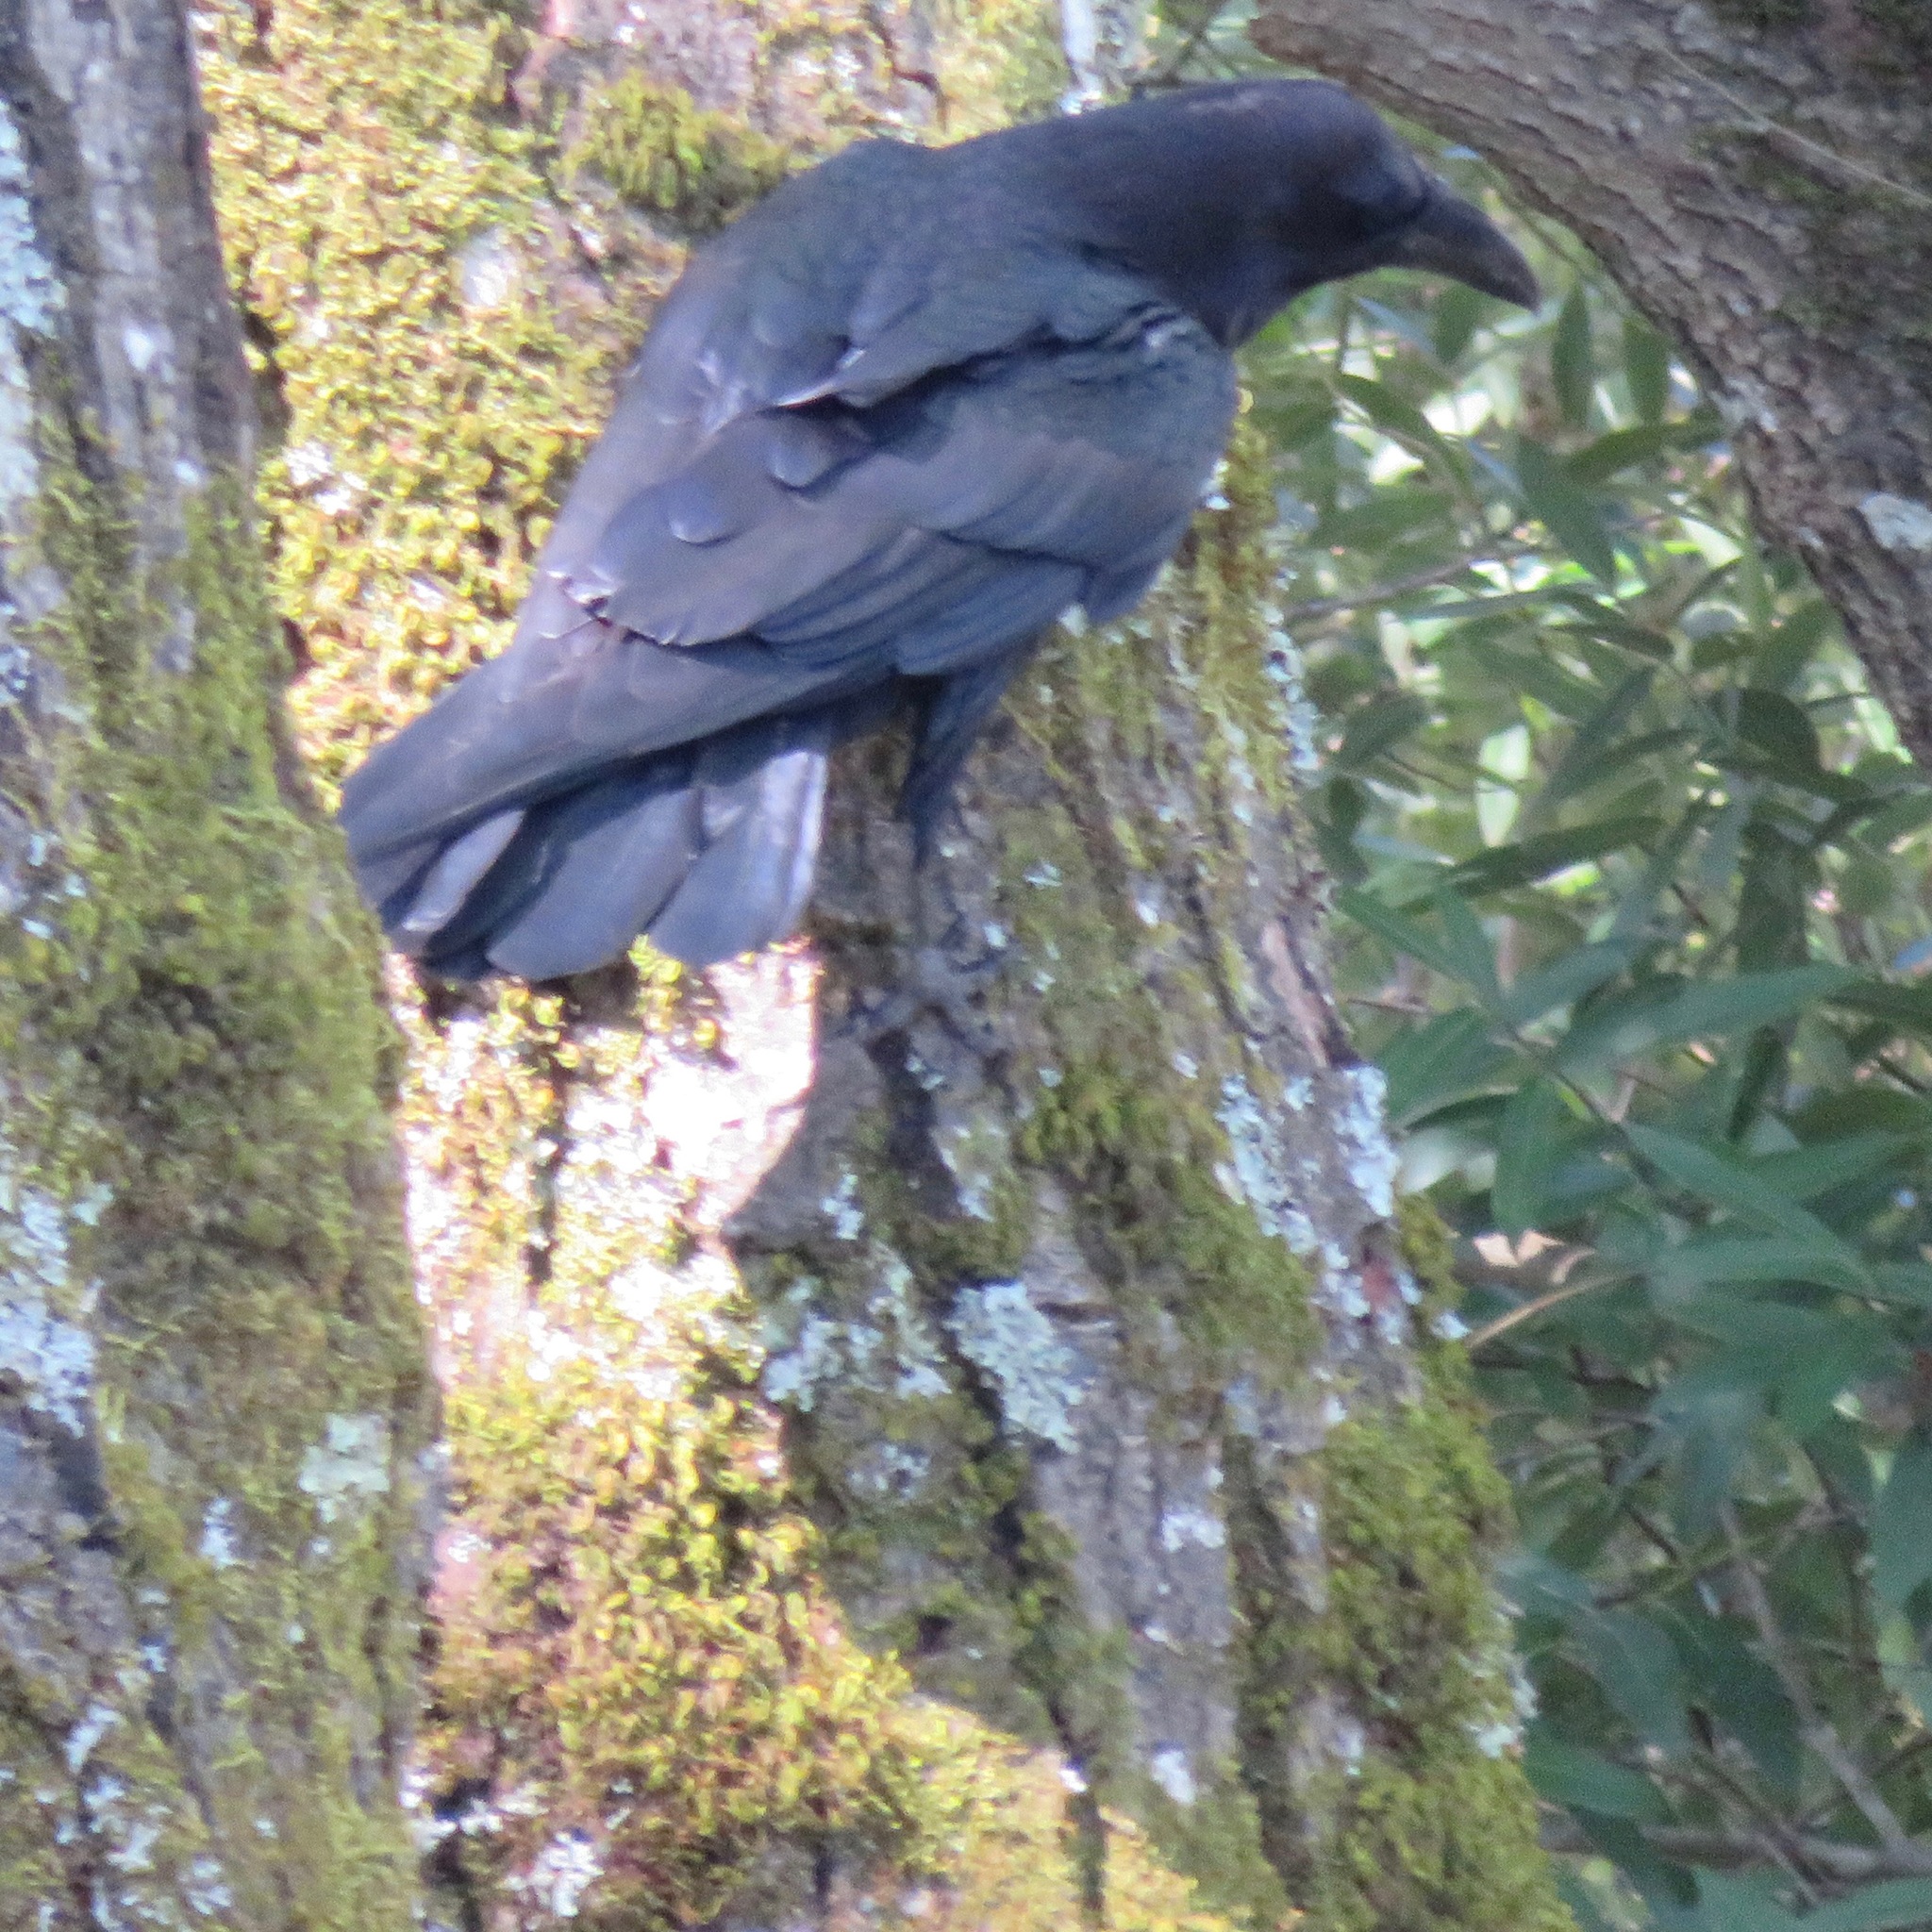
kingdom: Animalia
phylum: Chordata
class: Aves
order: Passeriformes
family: Corvidae
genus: Corvus
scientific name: Corvus corax
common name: Common raven
